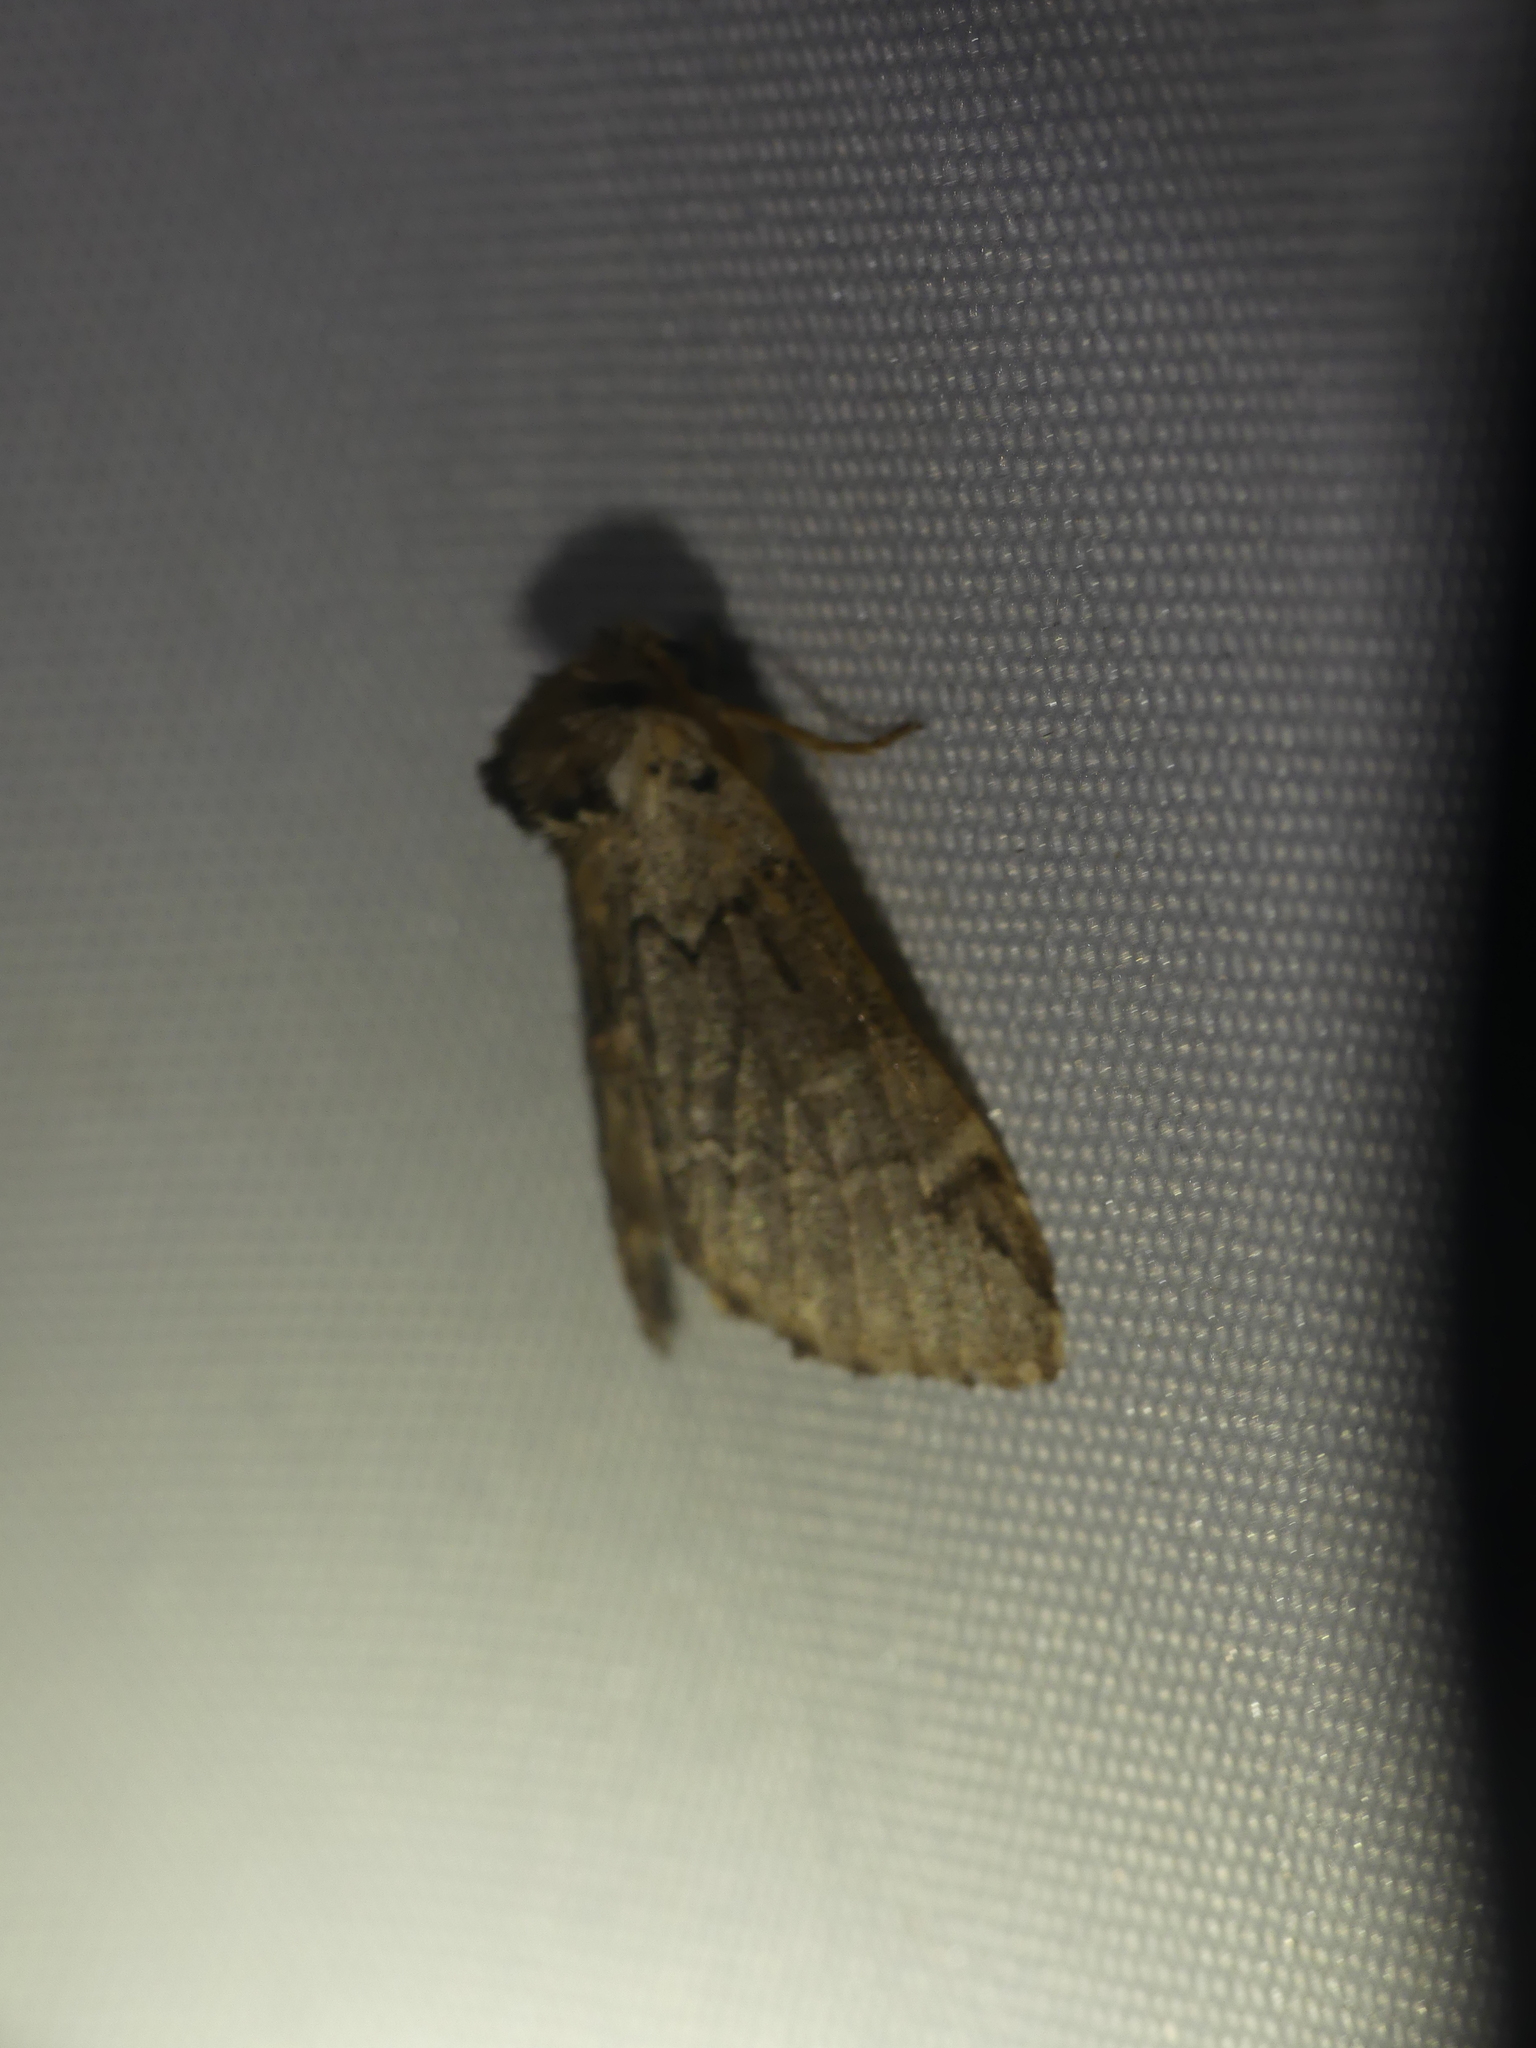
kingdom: Animalia
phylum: Arthropoda
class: Insecta
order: Lepidoptera
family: Notodontidae
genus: Drymonia
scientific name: Drymonia obliterata
